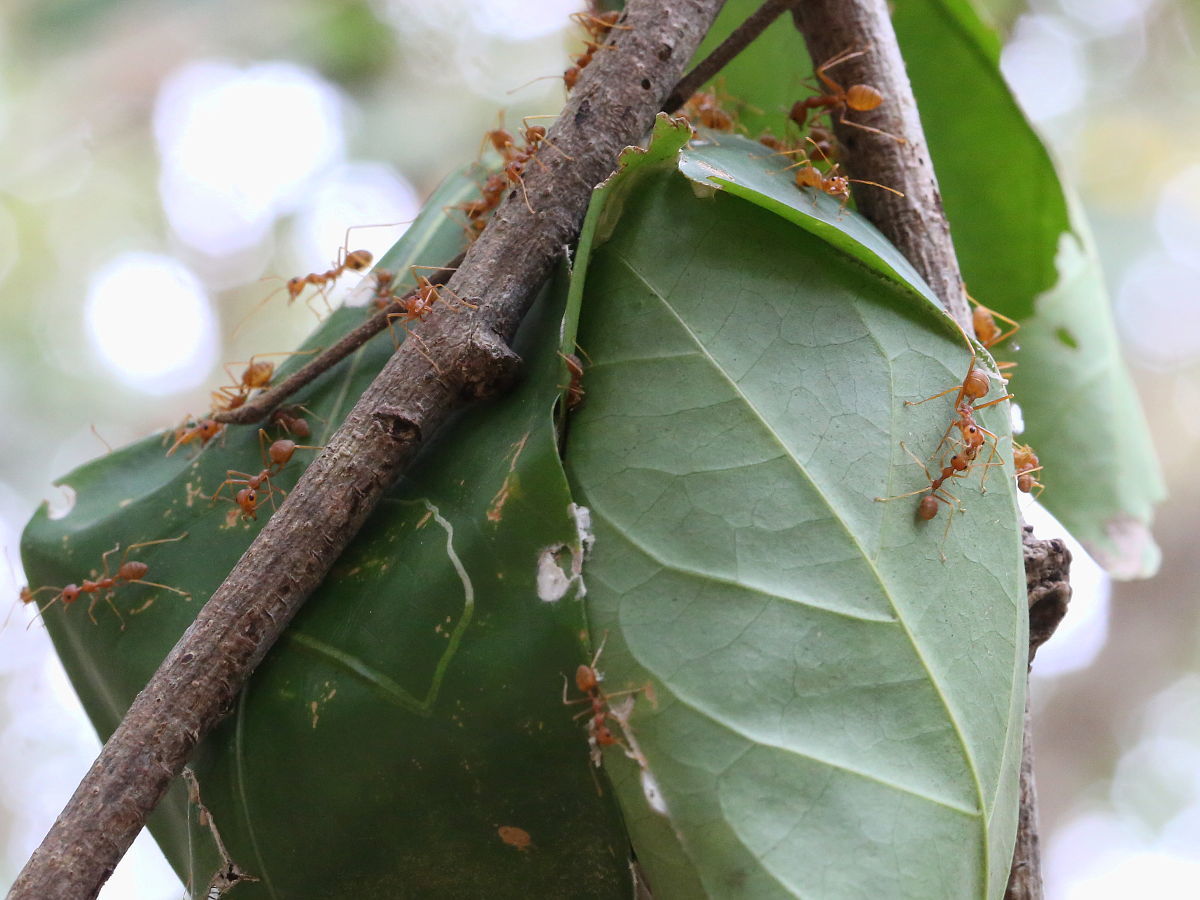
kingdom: Animalia
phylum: Arthropoda
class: Insecta
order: Hymenoptera
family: Formicidae
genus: Oecophylla
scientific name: Oecophylla smaragdina
